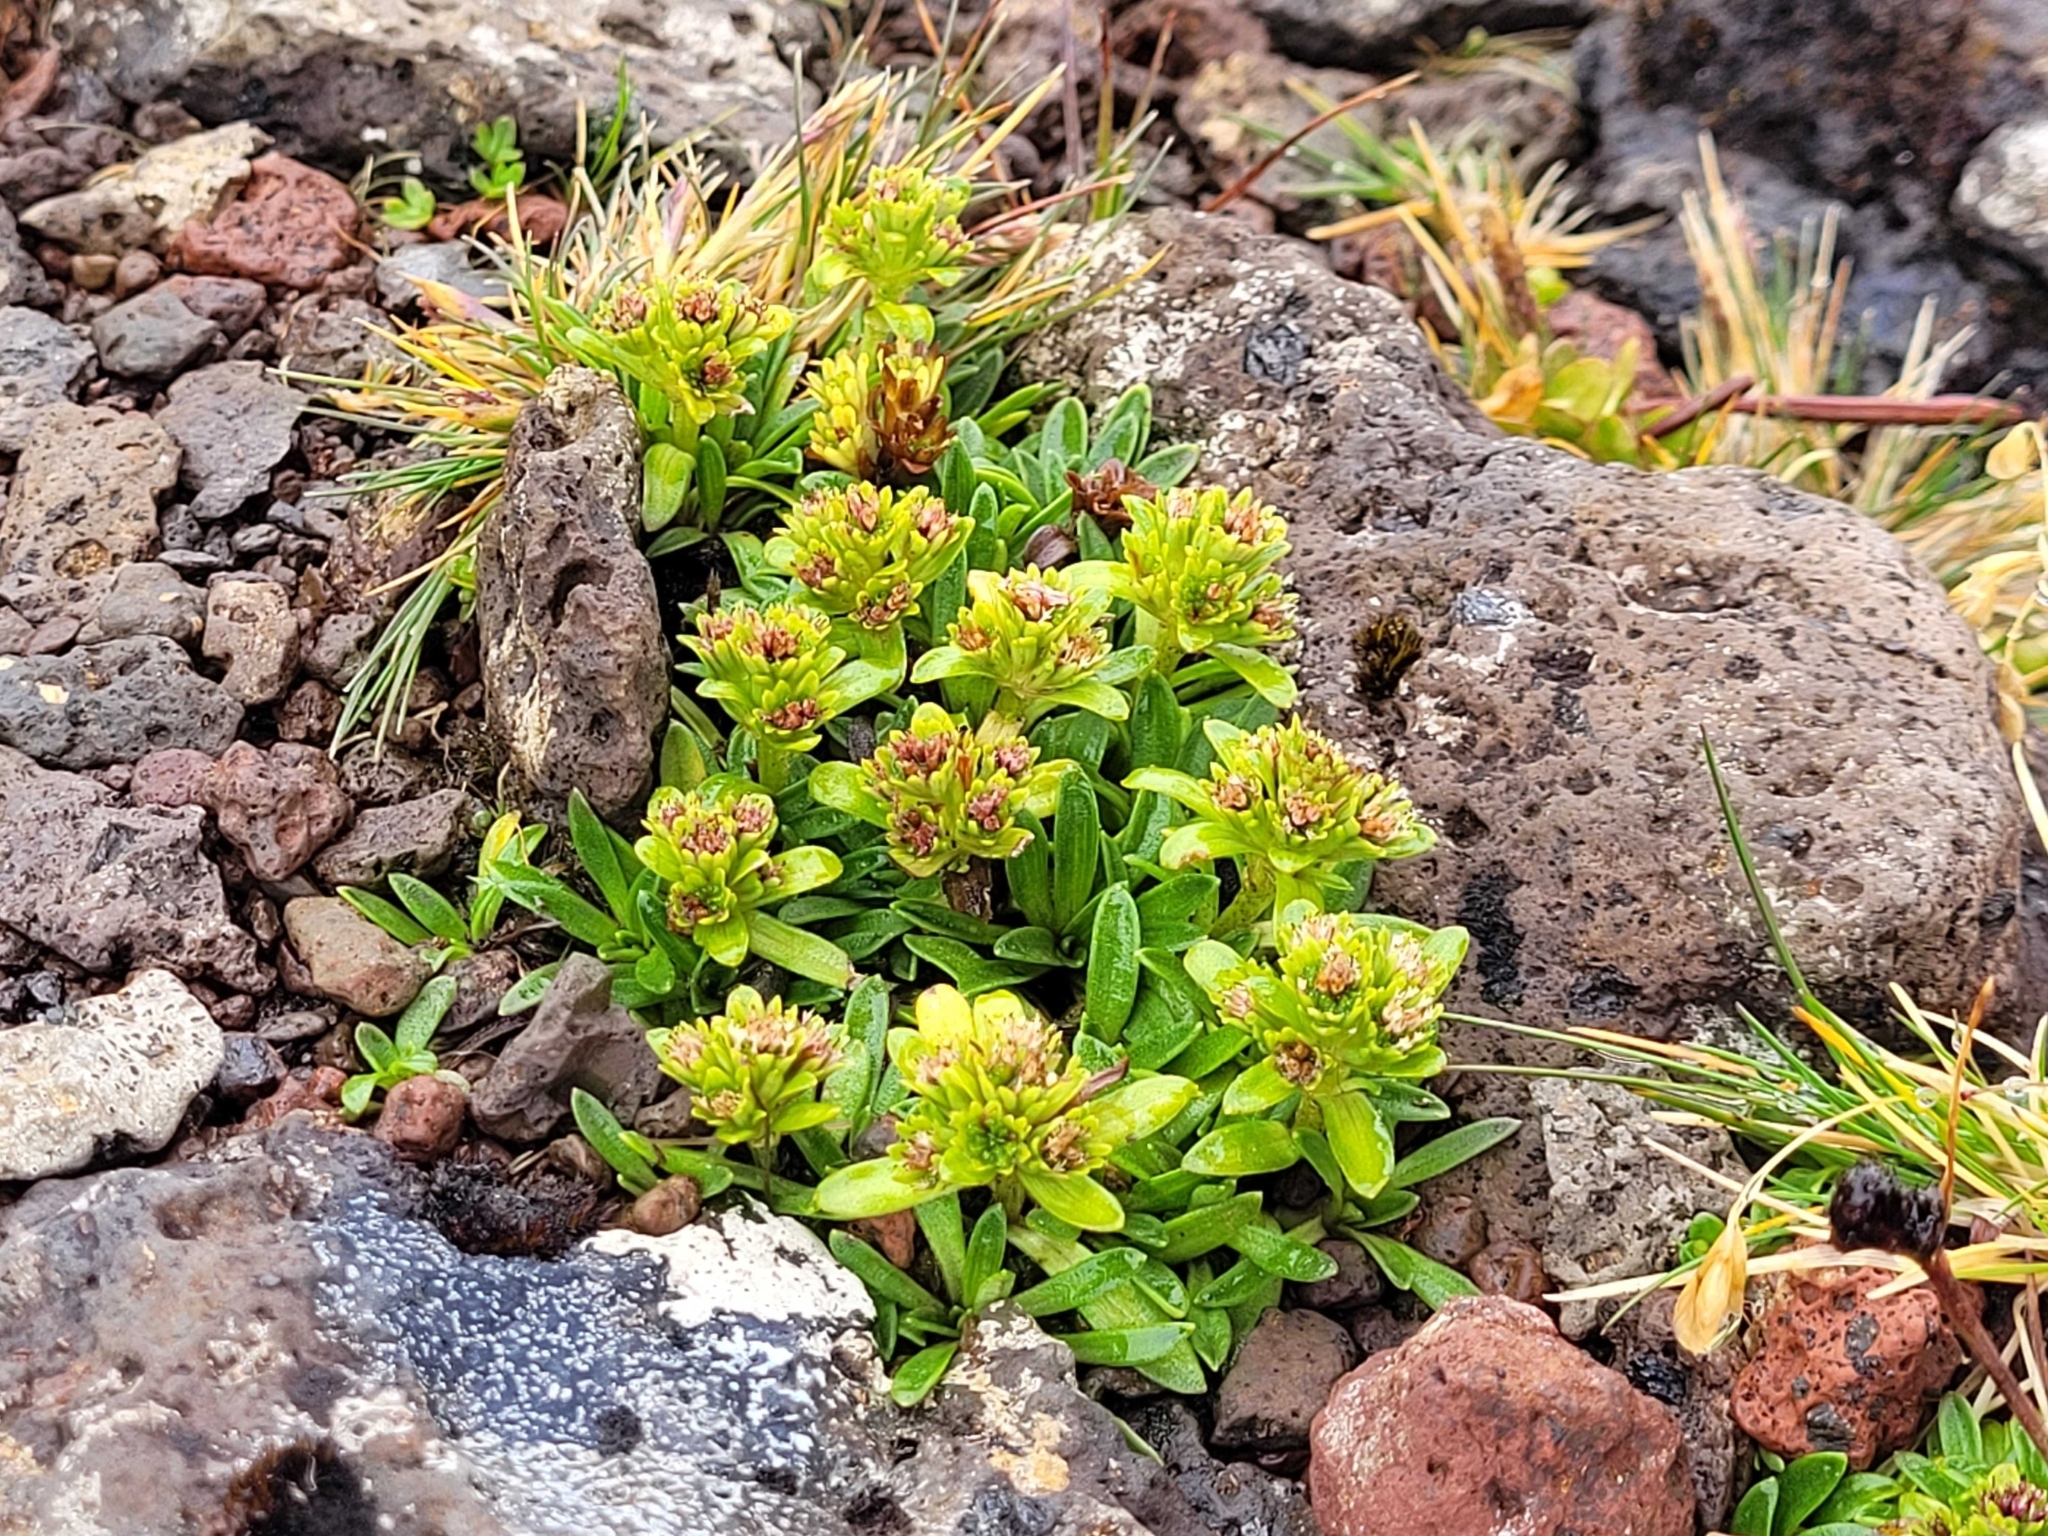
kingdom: Plantae
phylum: Tracheophyta
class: Magnoliopsida
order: Asterales
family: Asteraceae
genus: Abrotanella
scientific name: Abrotanella spathulata
